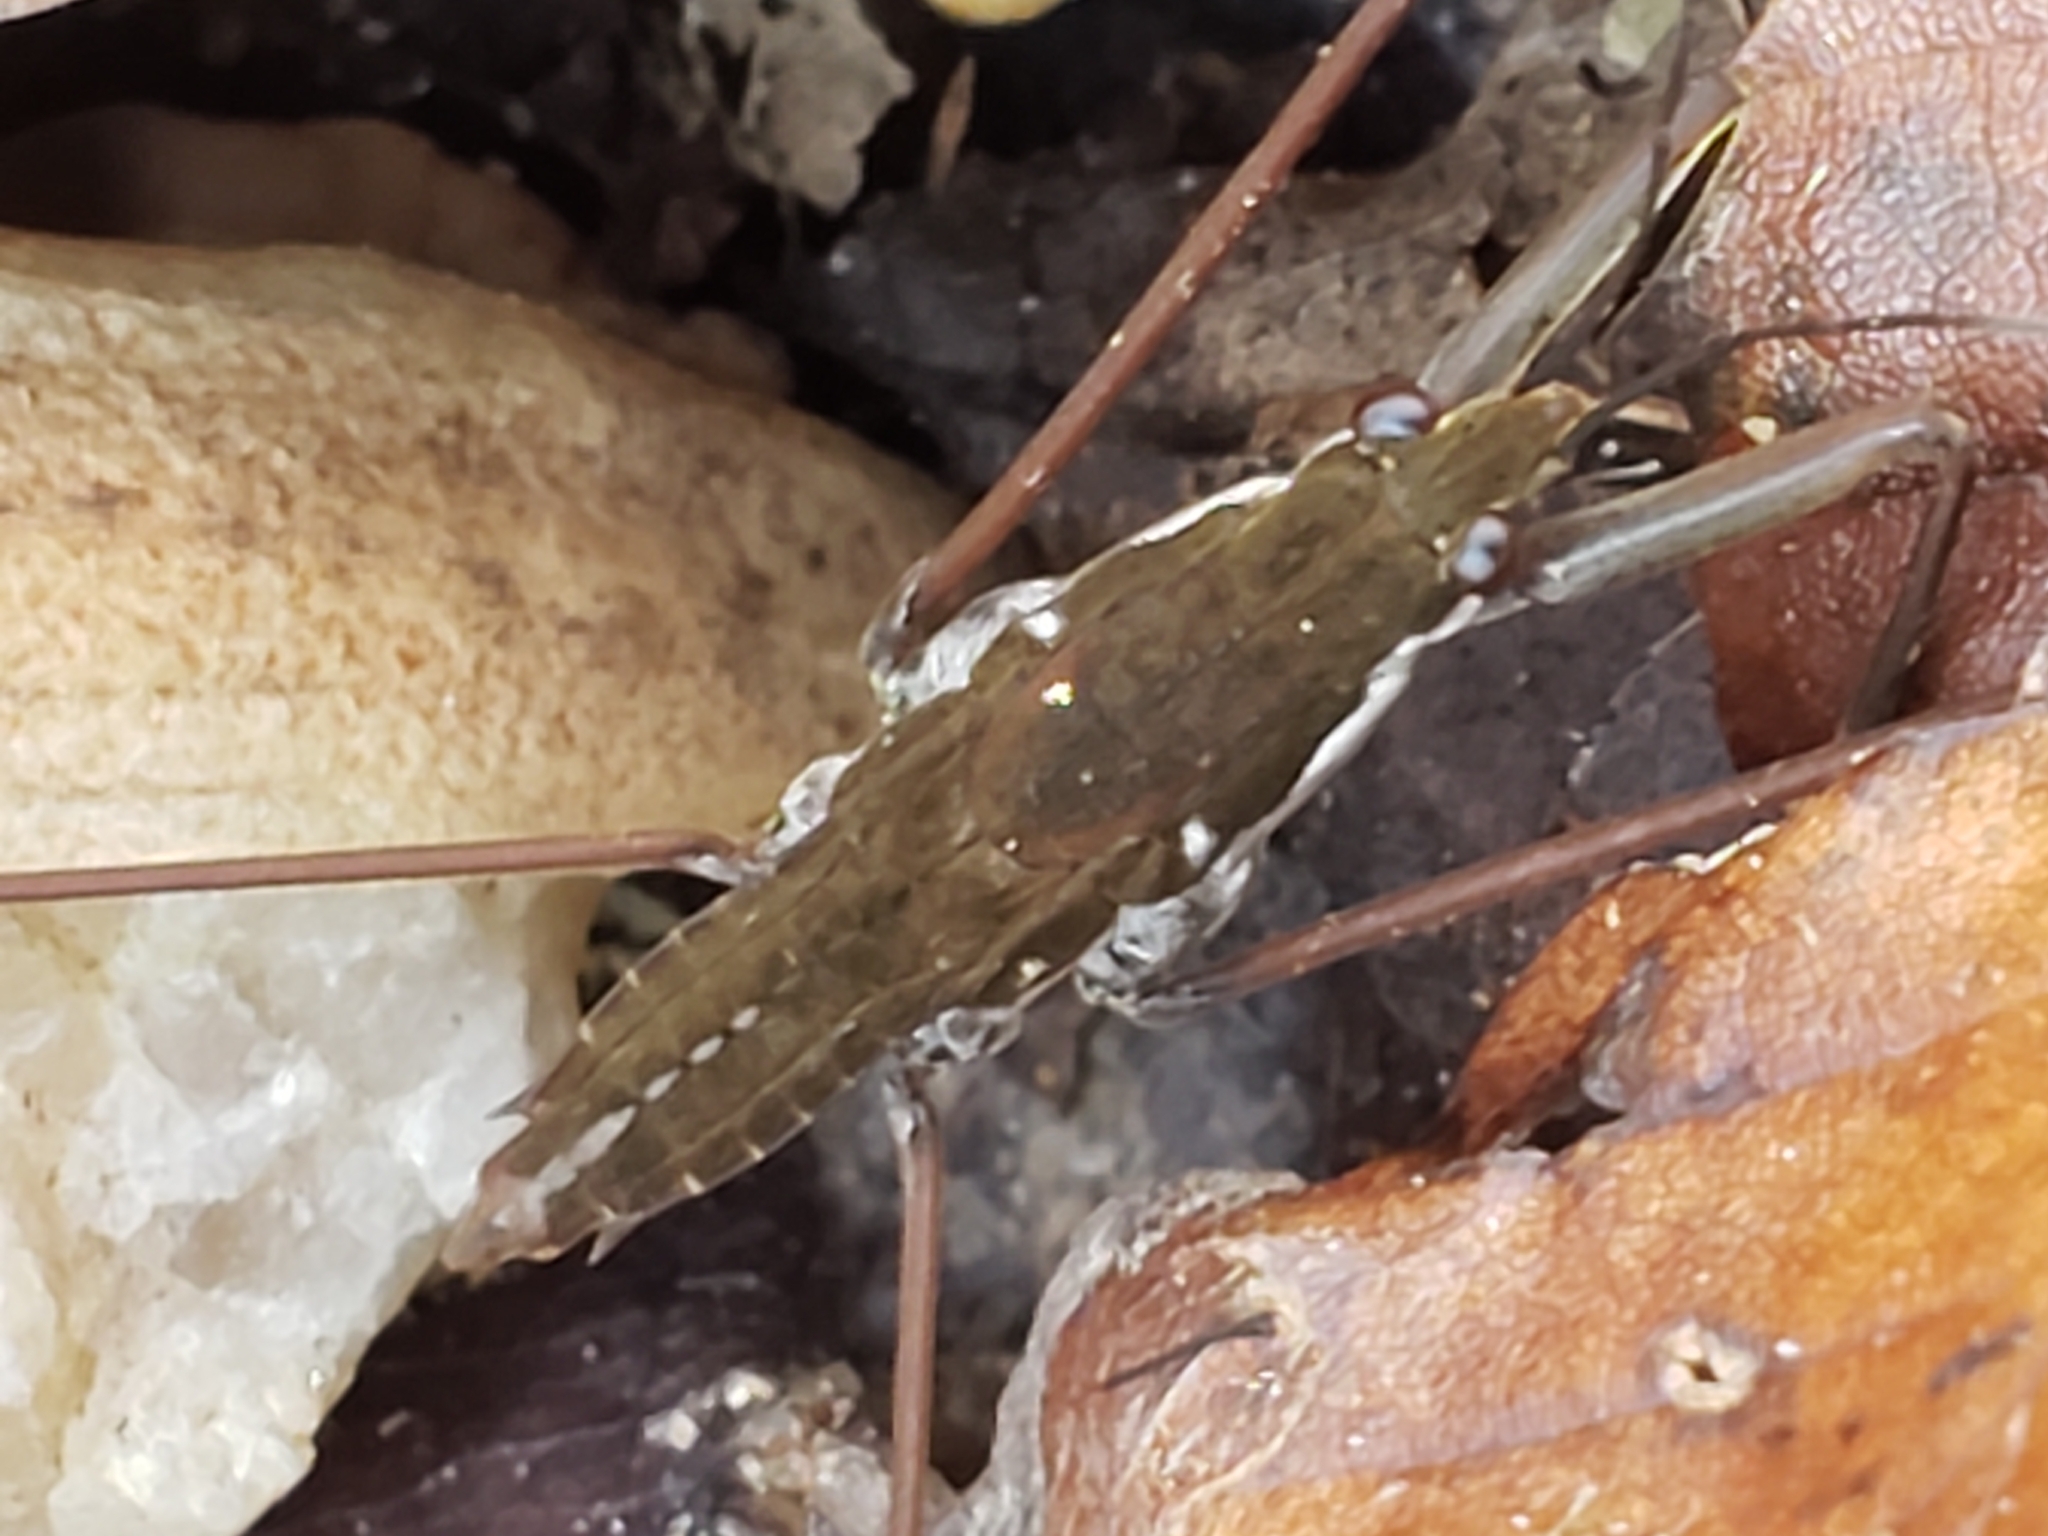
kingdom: Animalia
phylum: Arthropoda
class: Insecta
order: Hemiptera
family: Gerridae
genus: Aquarius
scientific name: Aquarius
